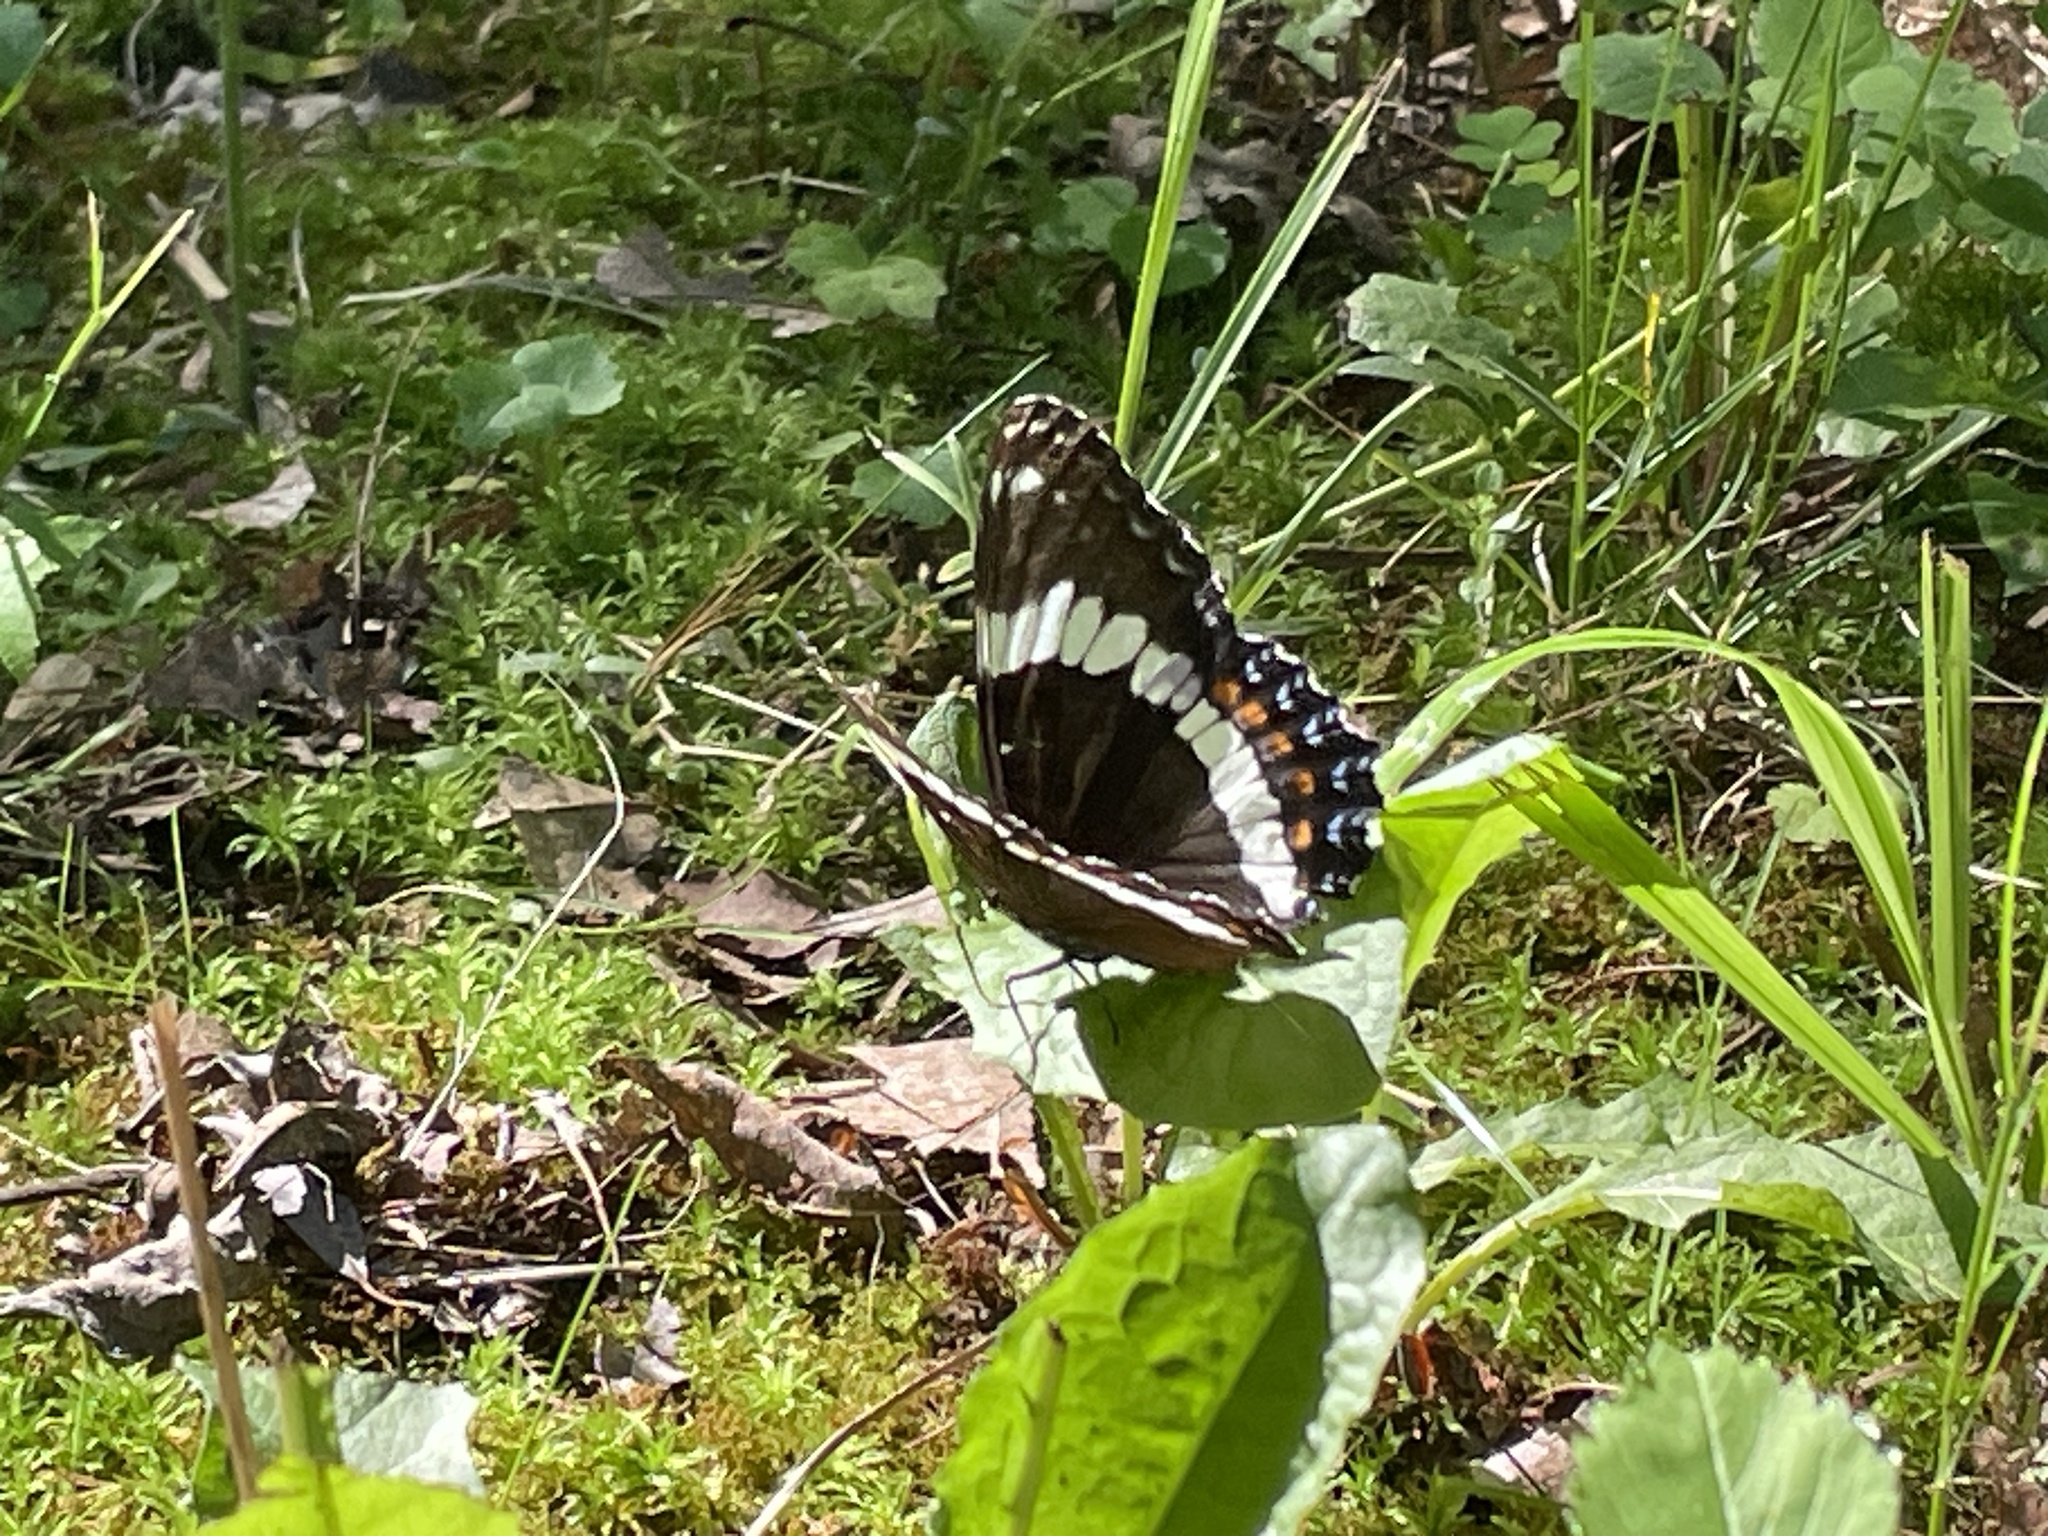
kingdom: Animalia
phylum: Arthropoda
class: Insecta
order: Lepidoptera
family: Nymphalidae
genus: Limenitis
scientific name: Limenitis arthemis
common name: Red-spotted admiral
